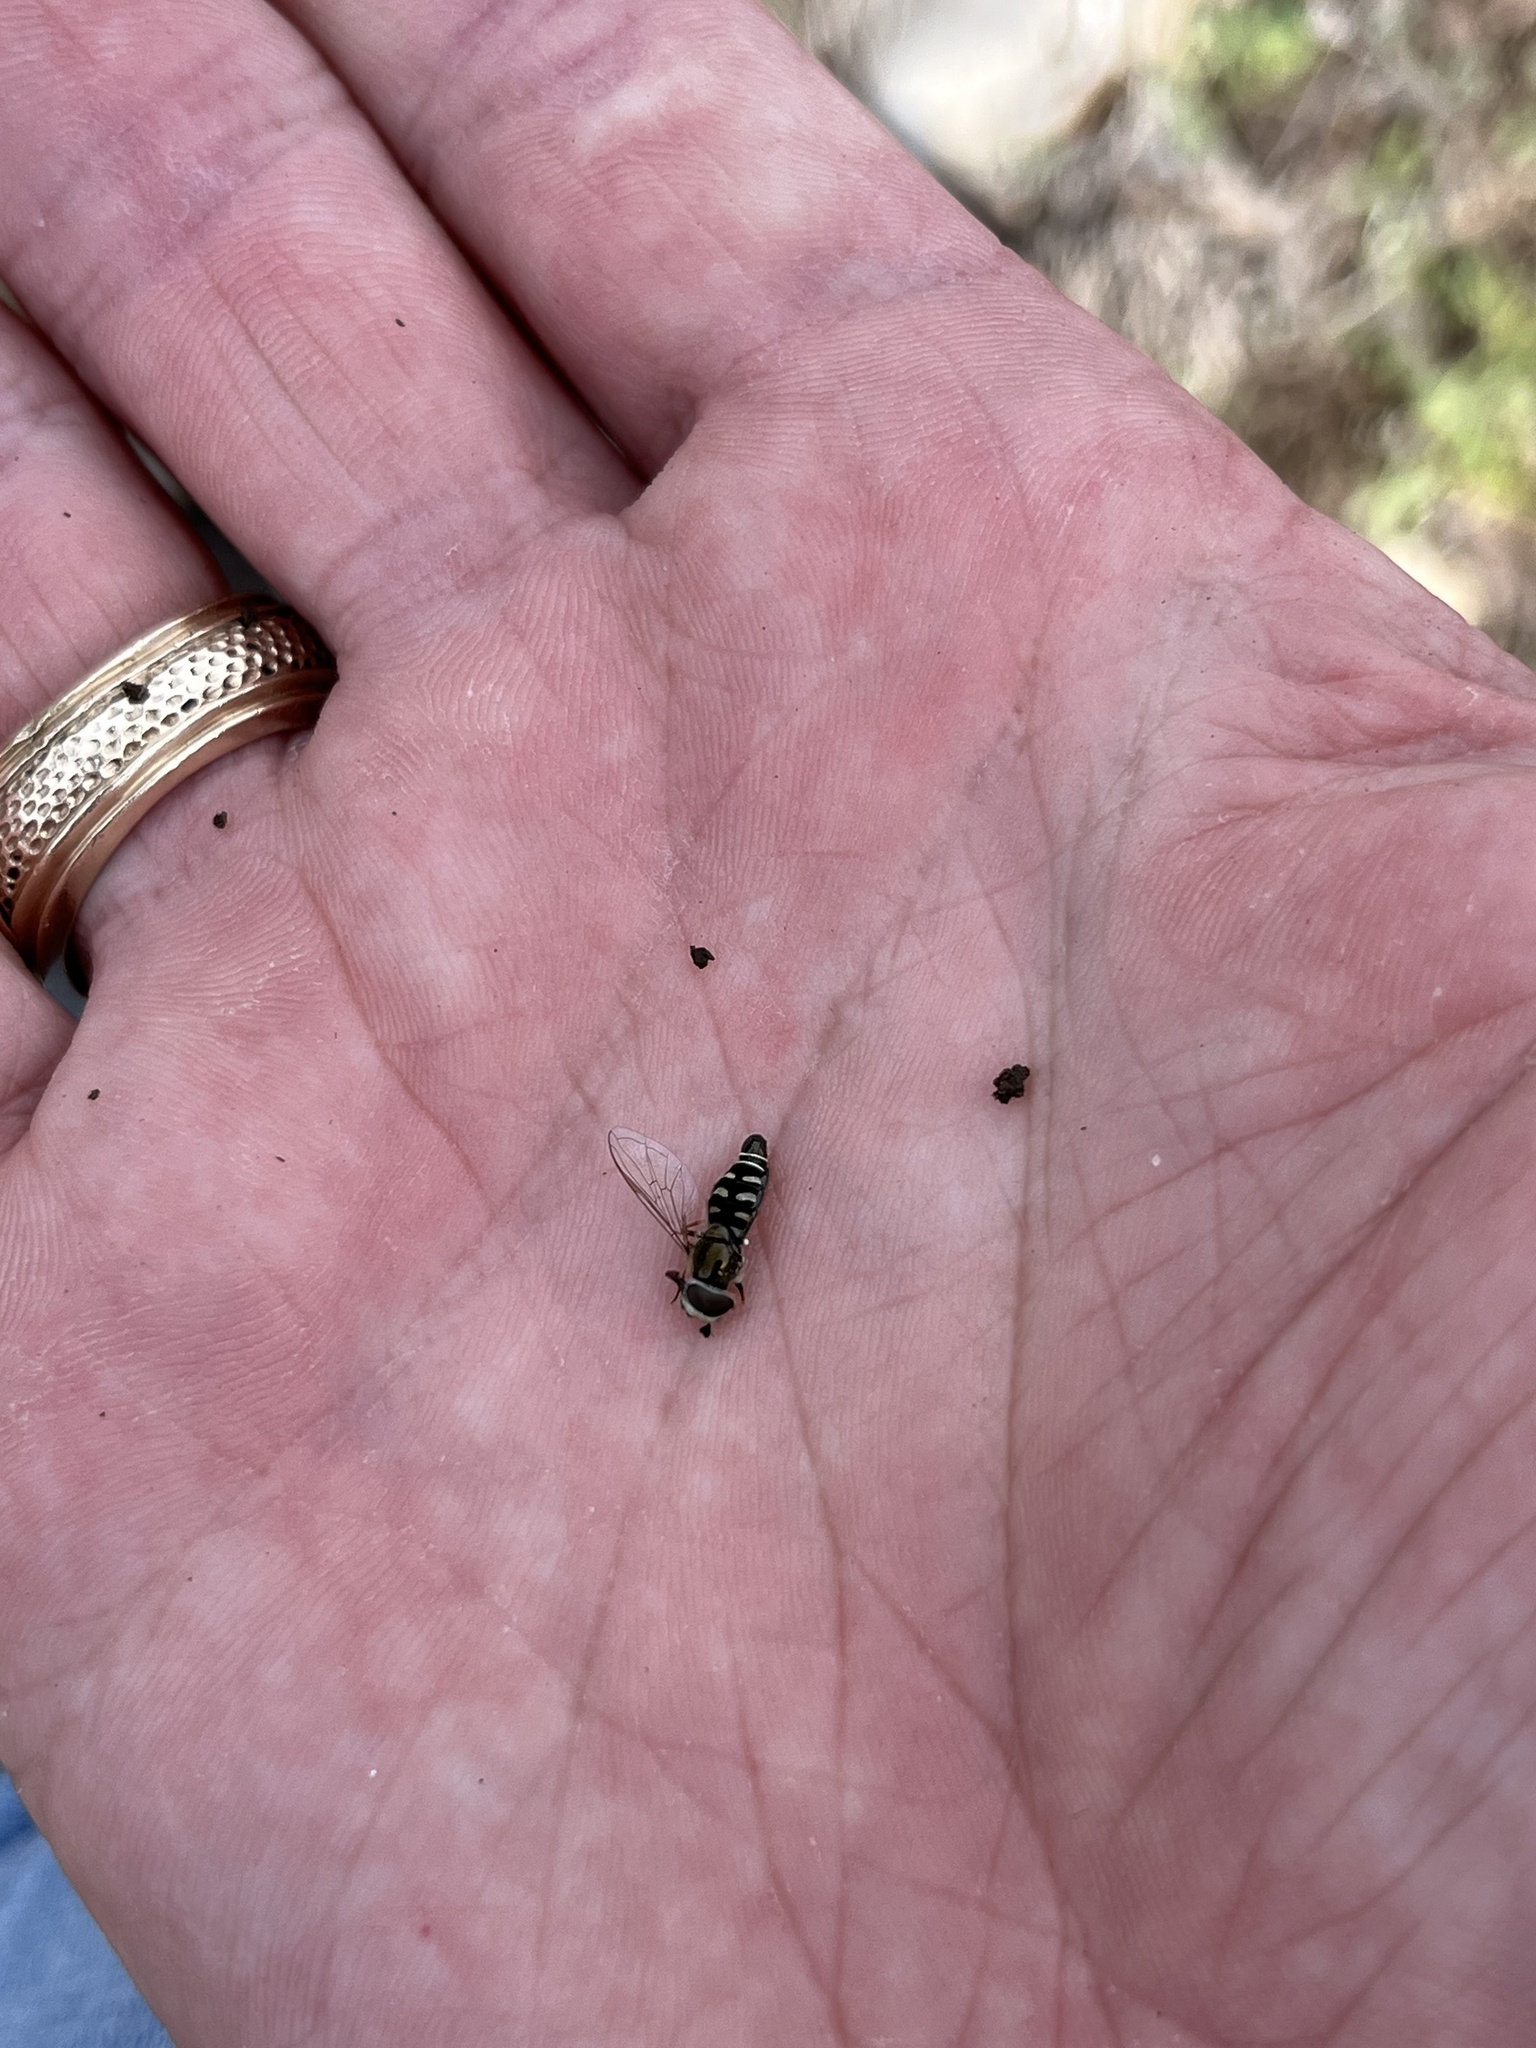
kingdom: Animalia
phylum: Arthropoda
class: Insecta
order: Diptera
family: Syrphidae
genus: Eupeodes
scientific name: Eupeodes volucris
